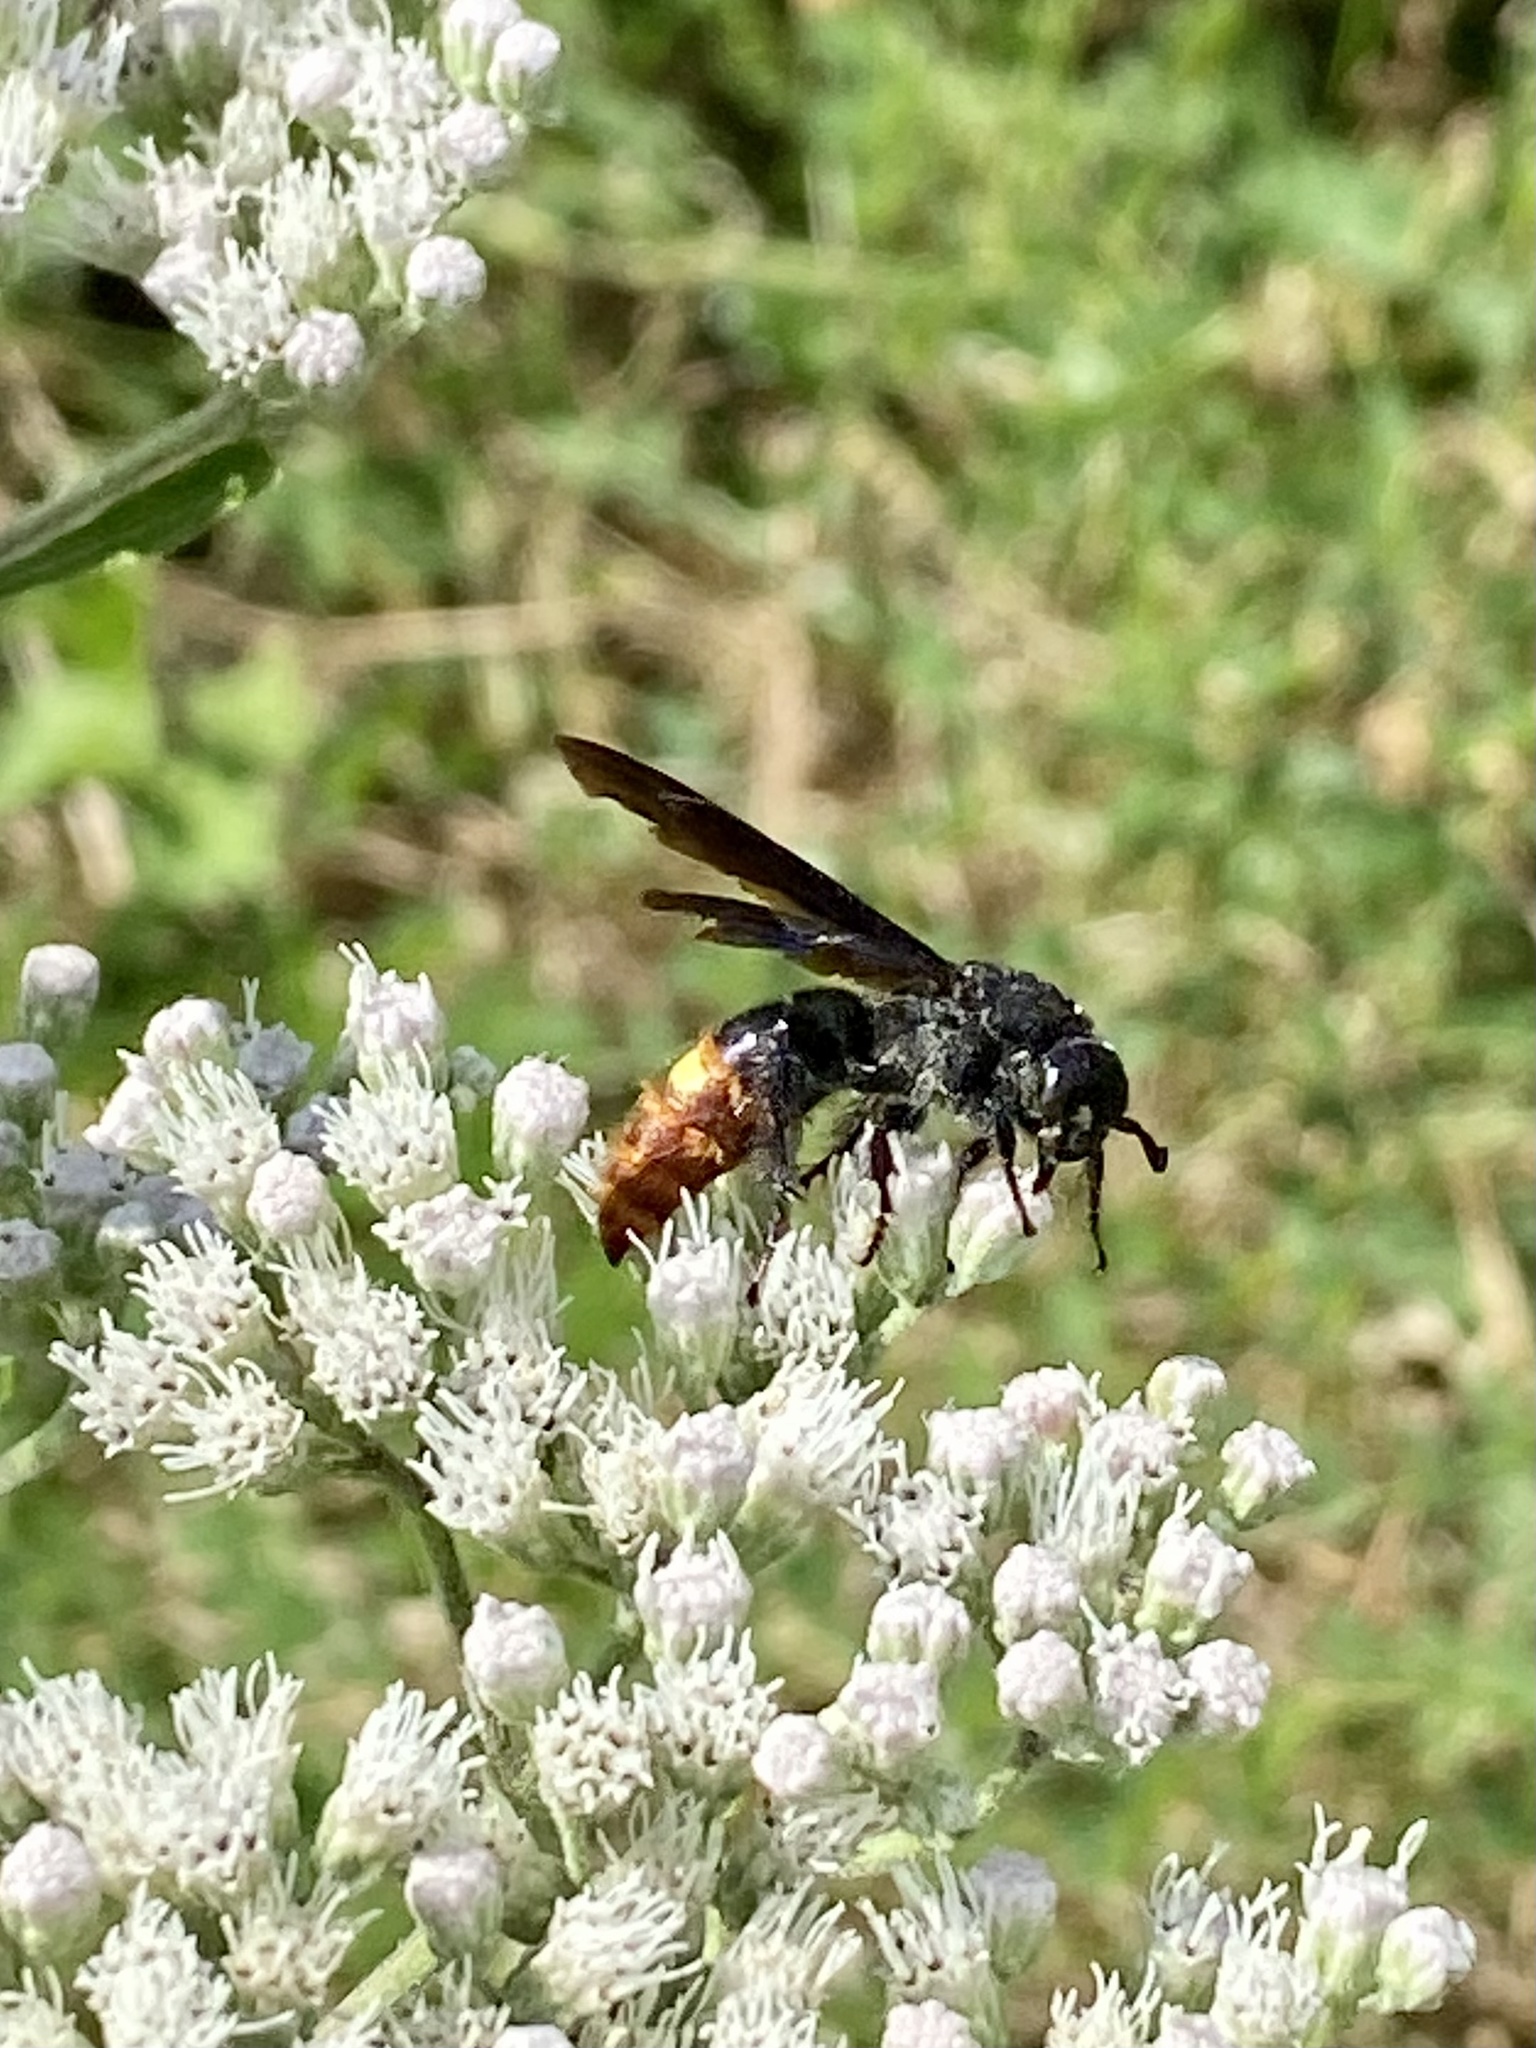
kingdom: Animalia
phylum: Arthropoda
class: Insecta
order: Hymenoptera
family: Scoliidae
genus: Scolia
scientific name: Scolia dubia
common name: Blue-winged scoliid wasp
